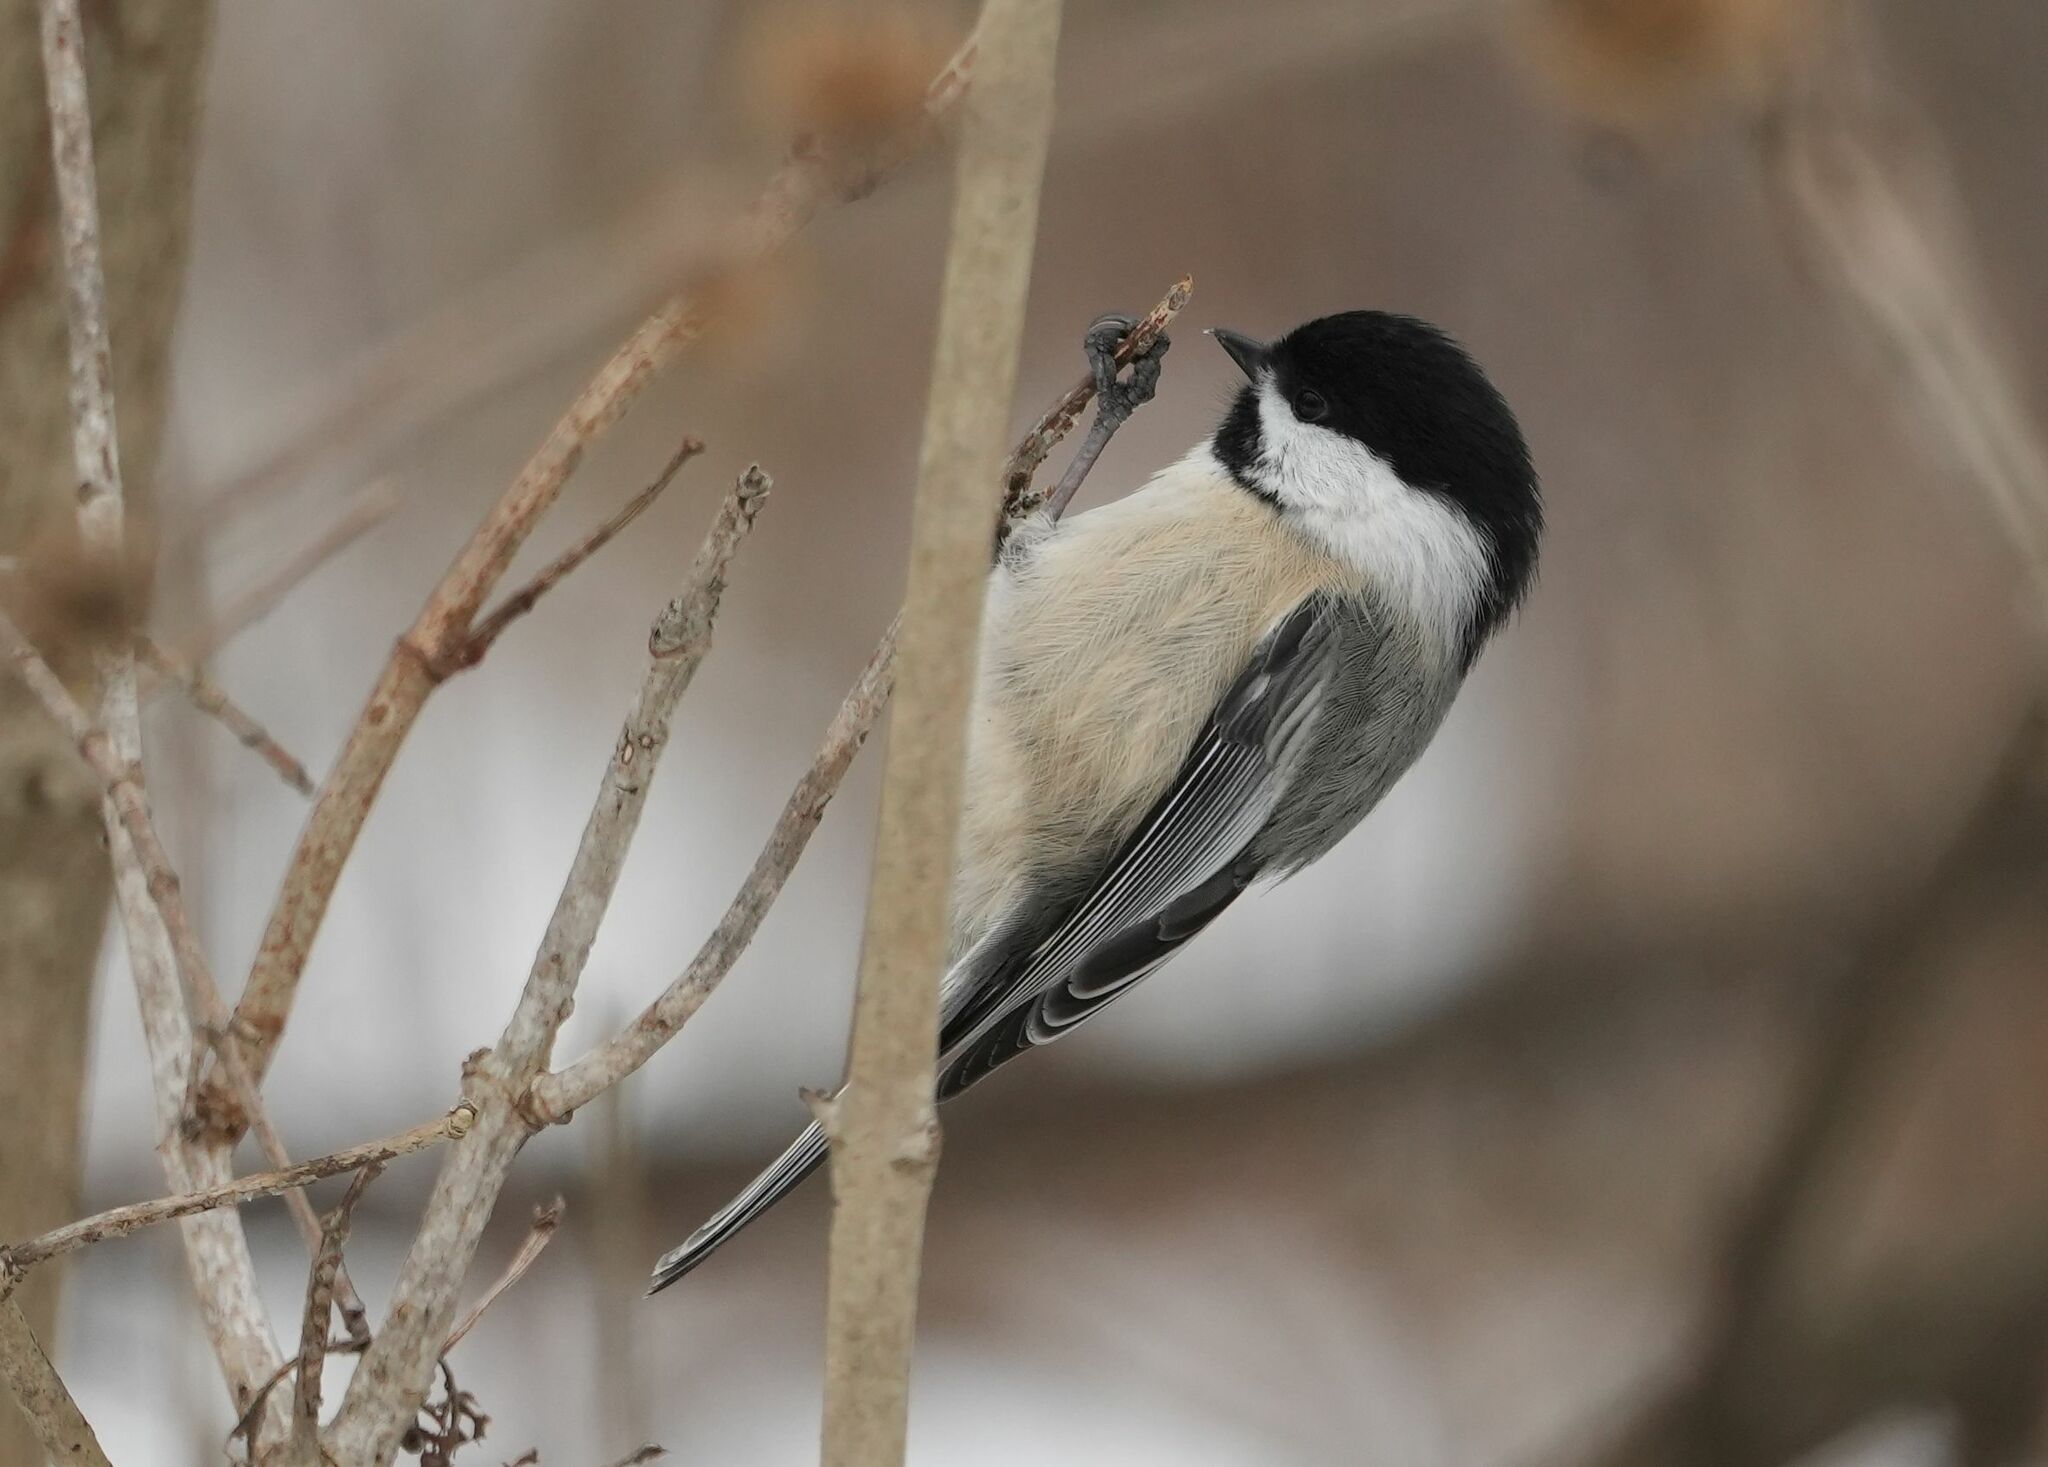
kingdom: Animalia
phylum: Chordata
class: Aves
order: Passeriformes
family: Paridae
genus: Poecile
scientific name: Poecile atricapillus
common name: Black-capped chickadee
